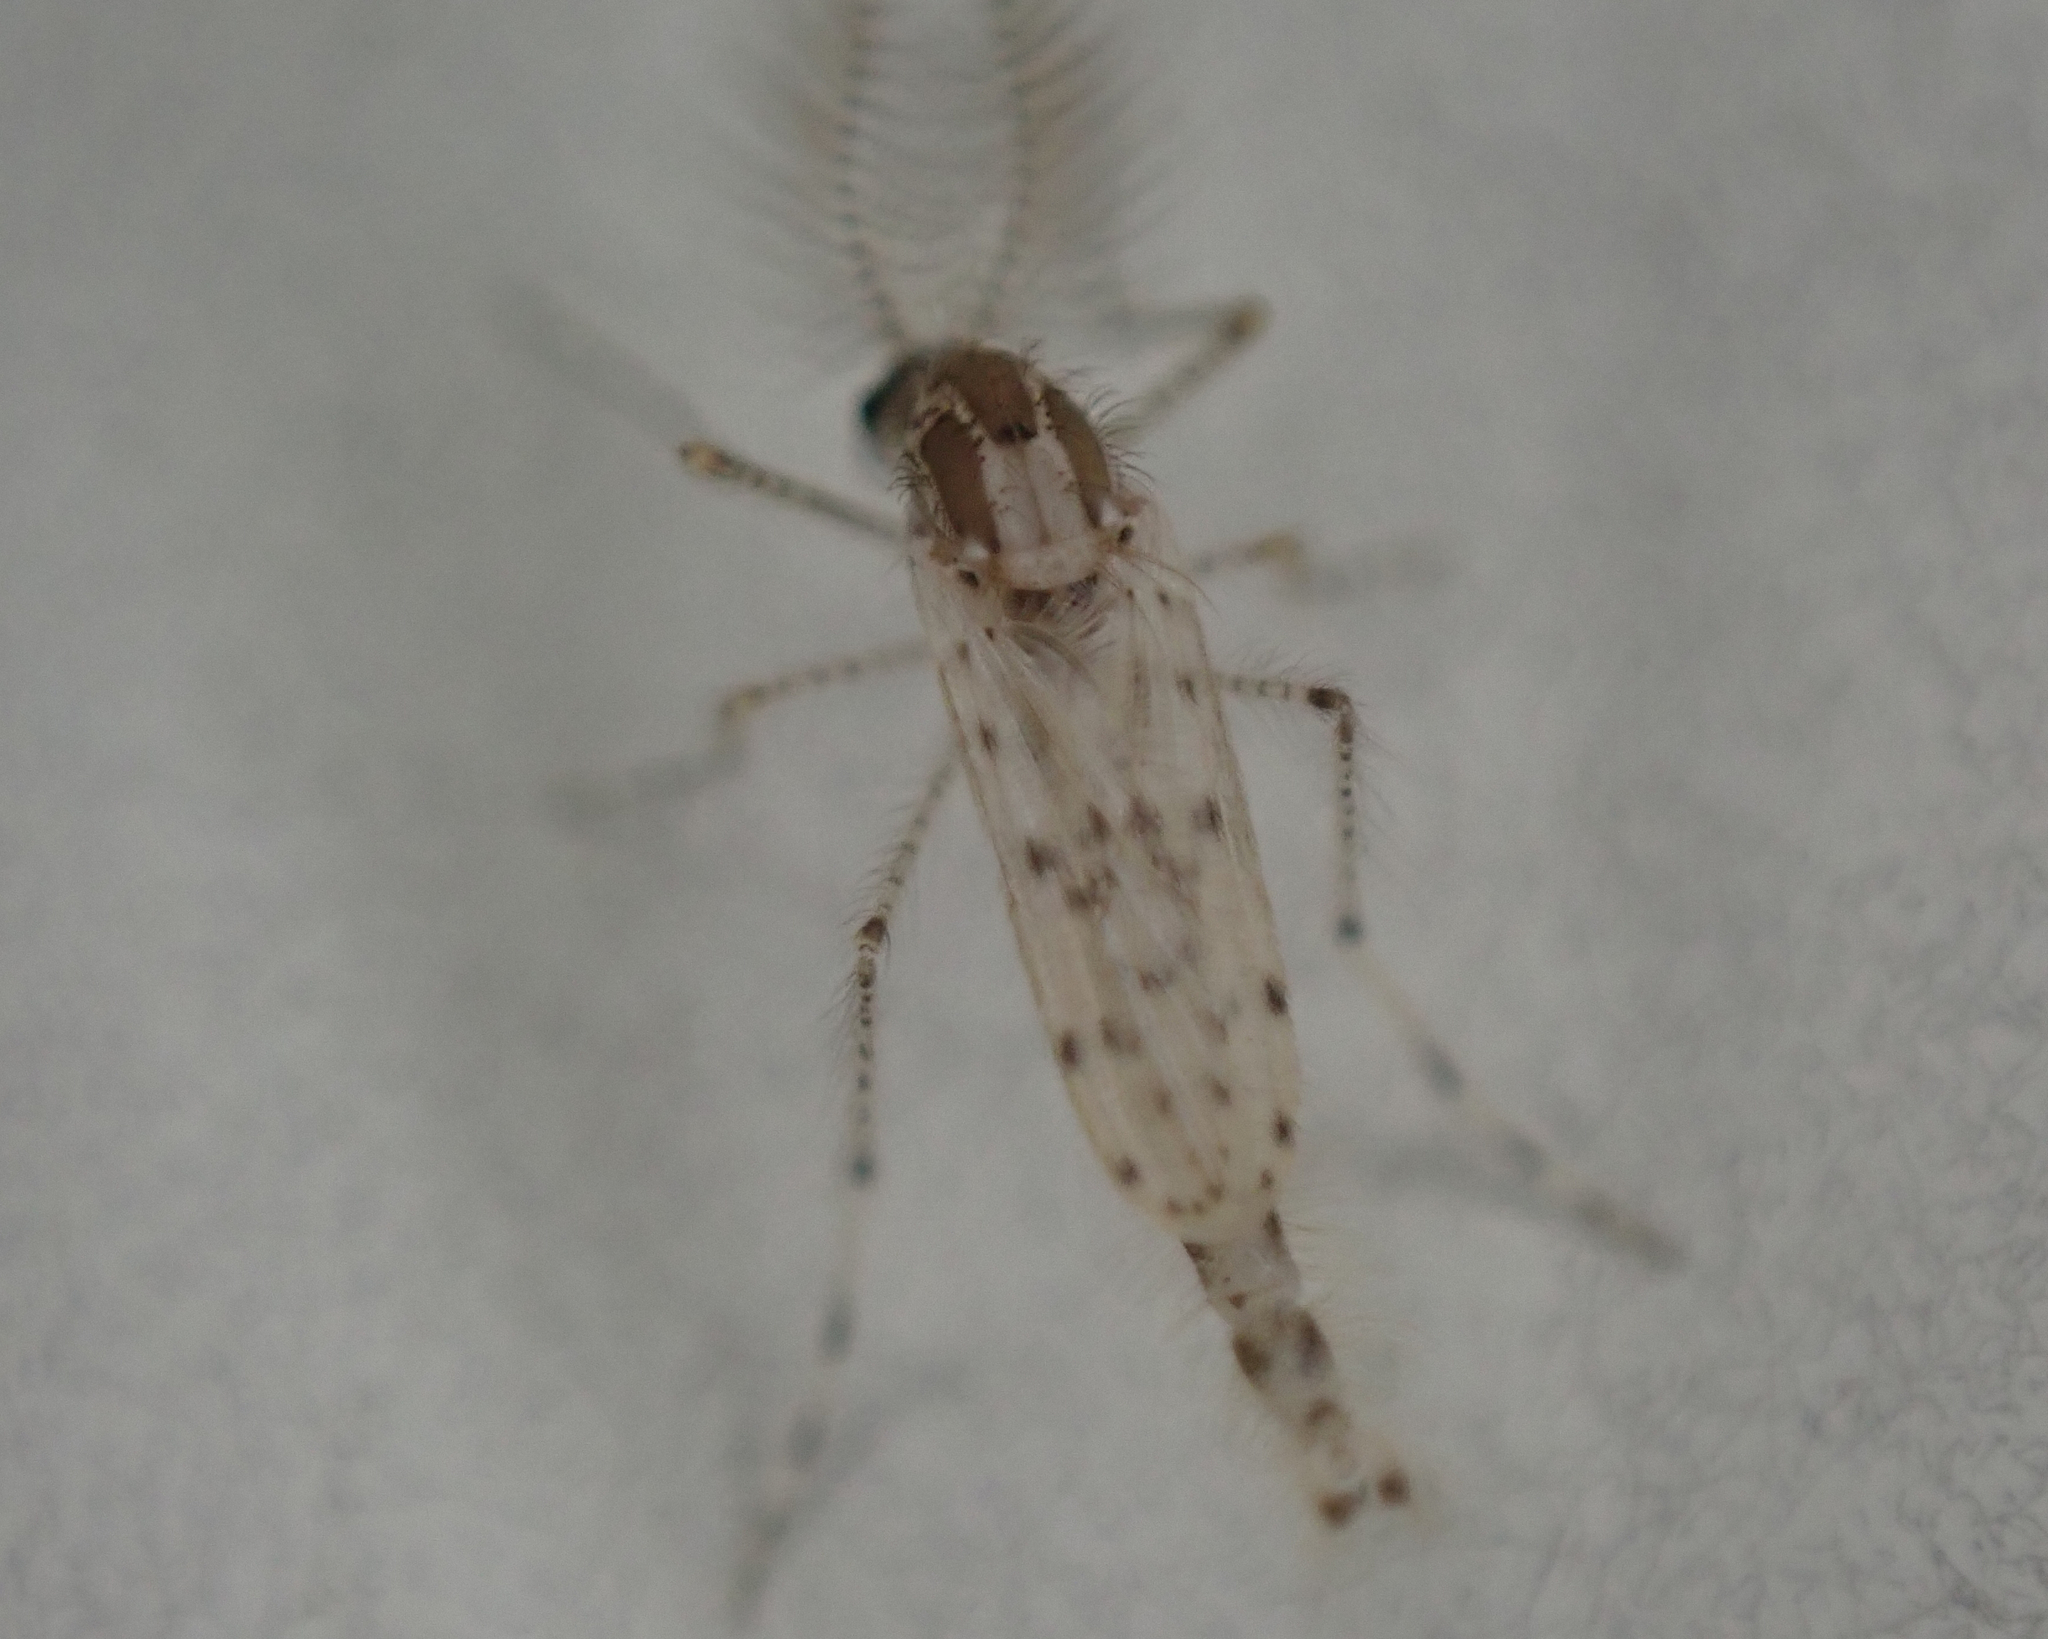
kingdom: Animalia
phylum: Arthropoda
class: Insecta
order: Diptera
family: Chaoboridae
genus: Chaoborus
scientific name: Chaoborus punctipennis
